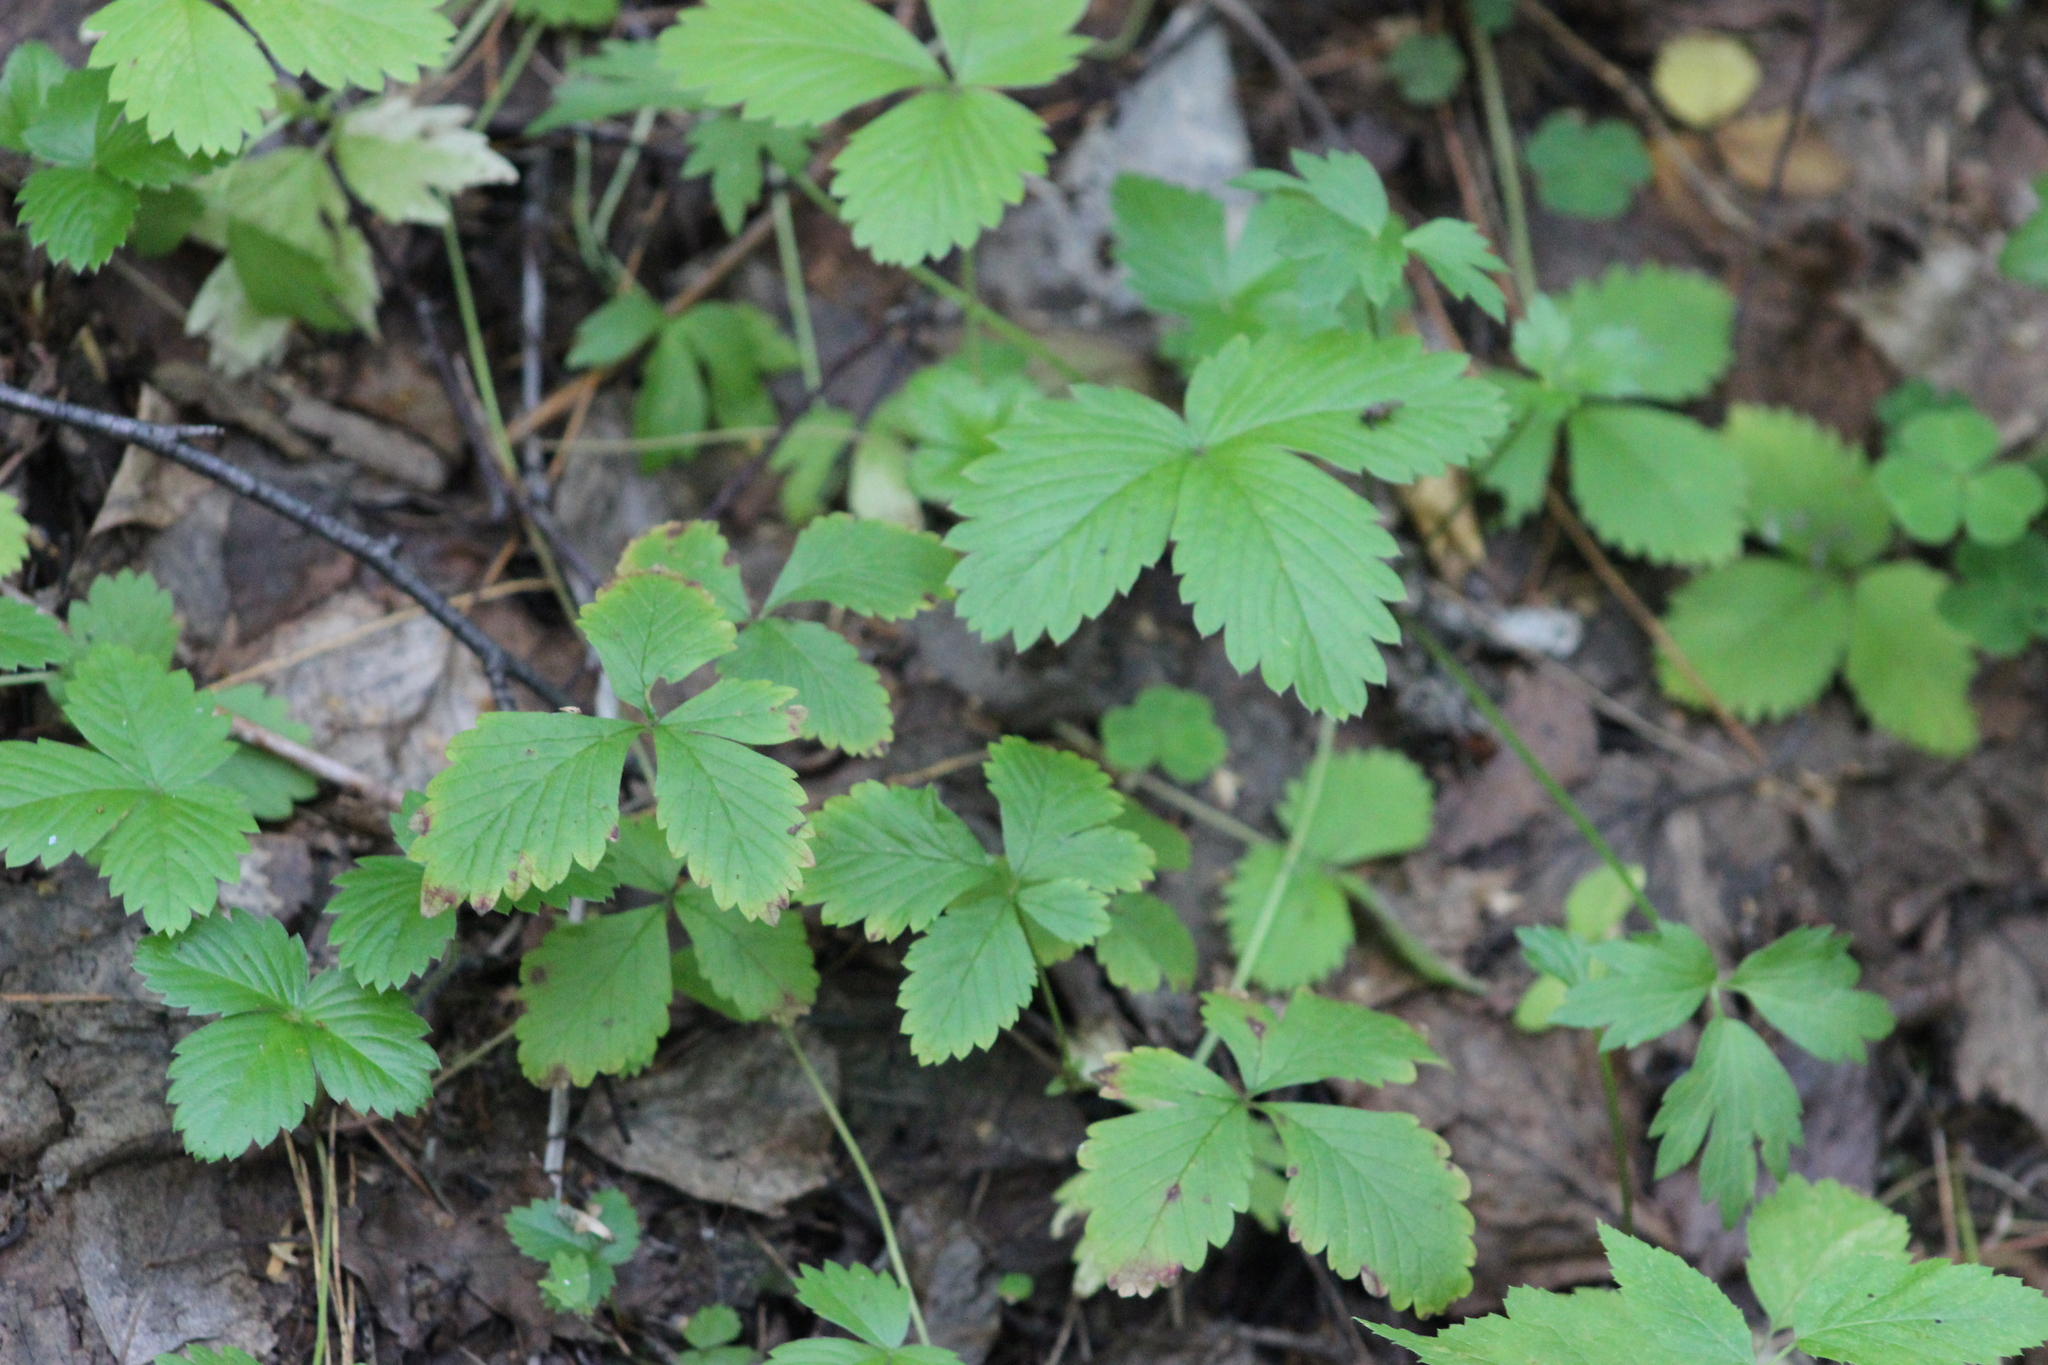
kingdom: Plantae
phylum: Tracheophyta
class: Magnoliopsida
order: Rosales
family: Rosaceae
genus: Fragaria
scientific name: Fragaria vesca
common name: Wild strawberry
